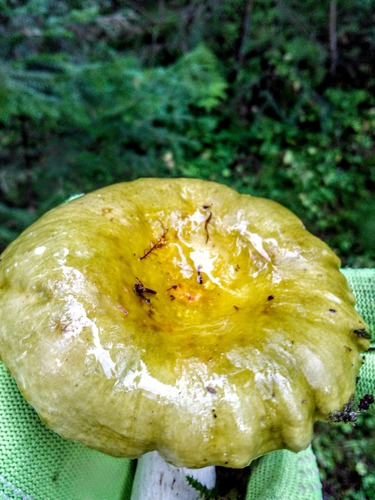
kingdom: Fungi
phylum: Basidiomycota
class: Agaricomycetes
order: Russulales
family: Russulaceae
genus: Russula
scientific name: Russula
